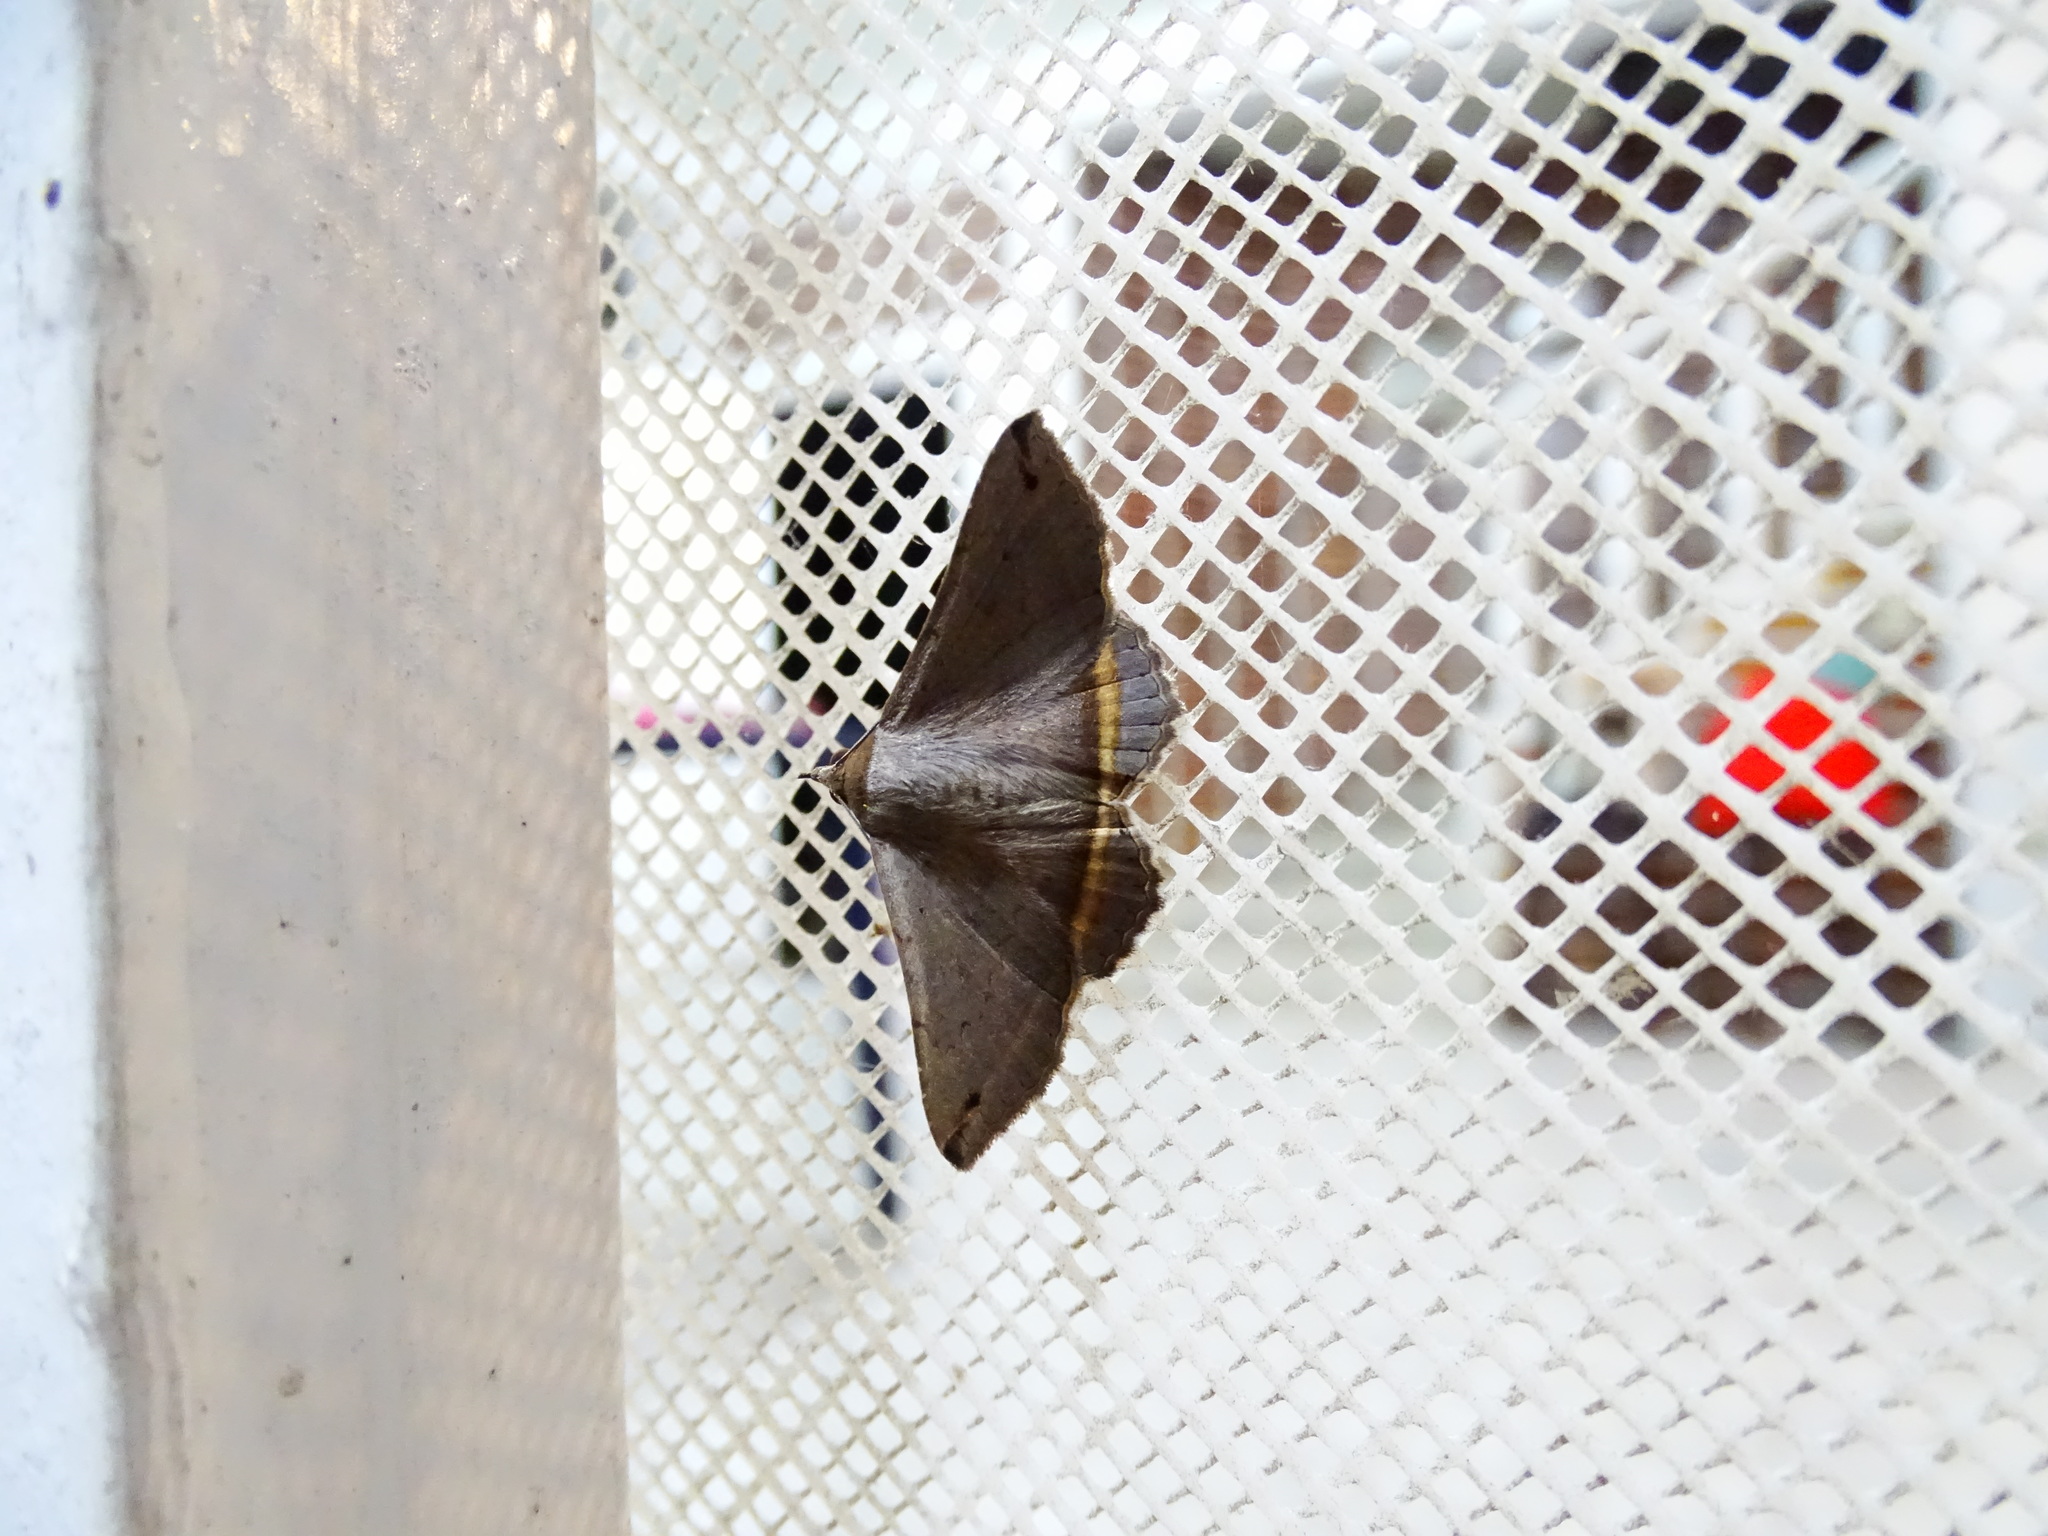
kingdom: Animalia
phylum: Arthropoda
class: Insecta
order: Lepidoptera
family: Erebidae
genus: Lesmone
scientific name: Lesmone formularis
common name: Lesmone moth
